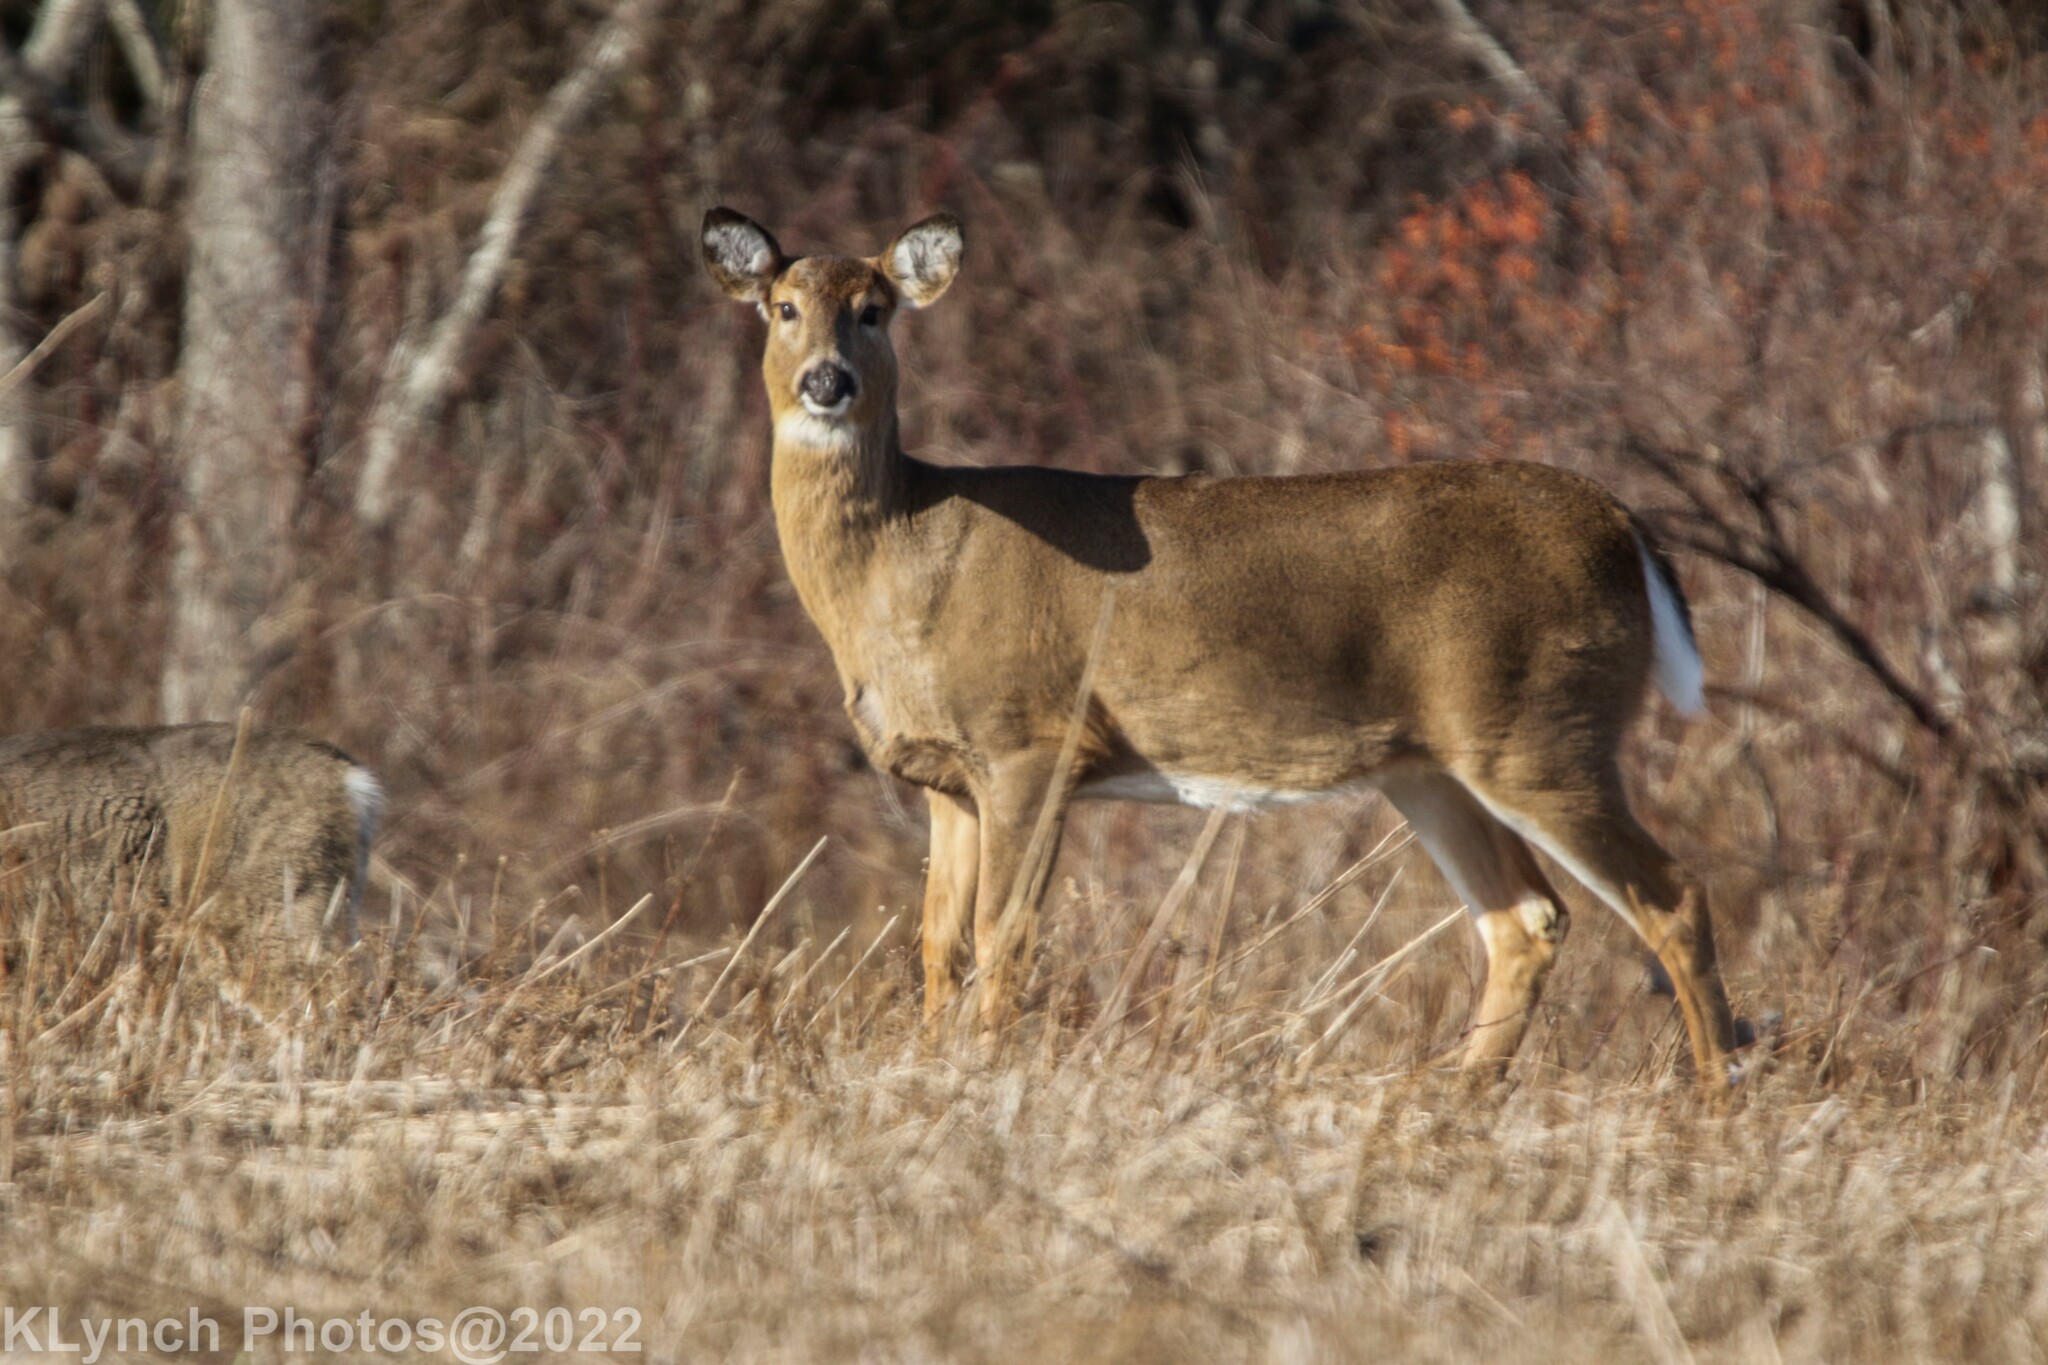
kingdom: Animalia
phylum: Chordata
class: Mammalia
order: Artiodactyla
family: Cervidae
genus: Odocoileus
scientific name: Odocoileus virginianus
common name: White-tailed deer
